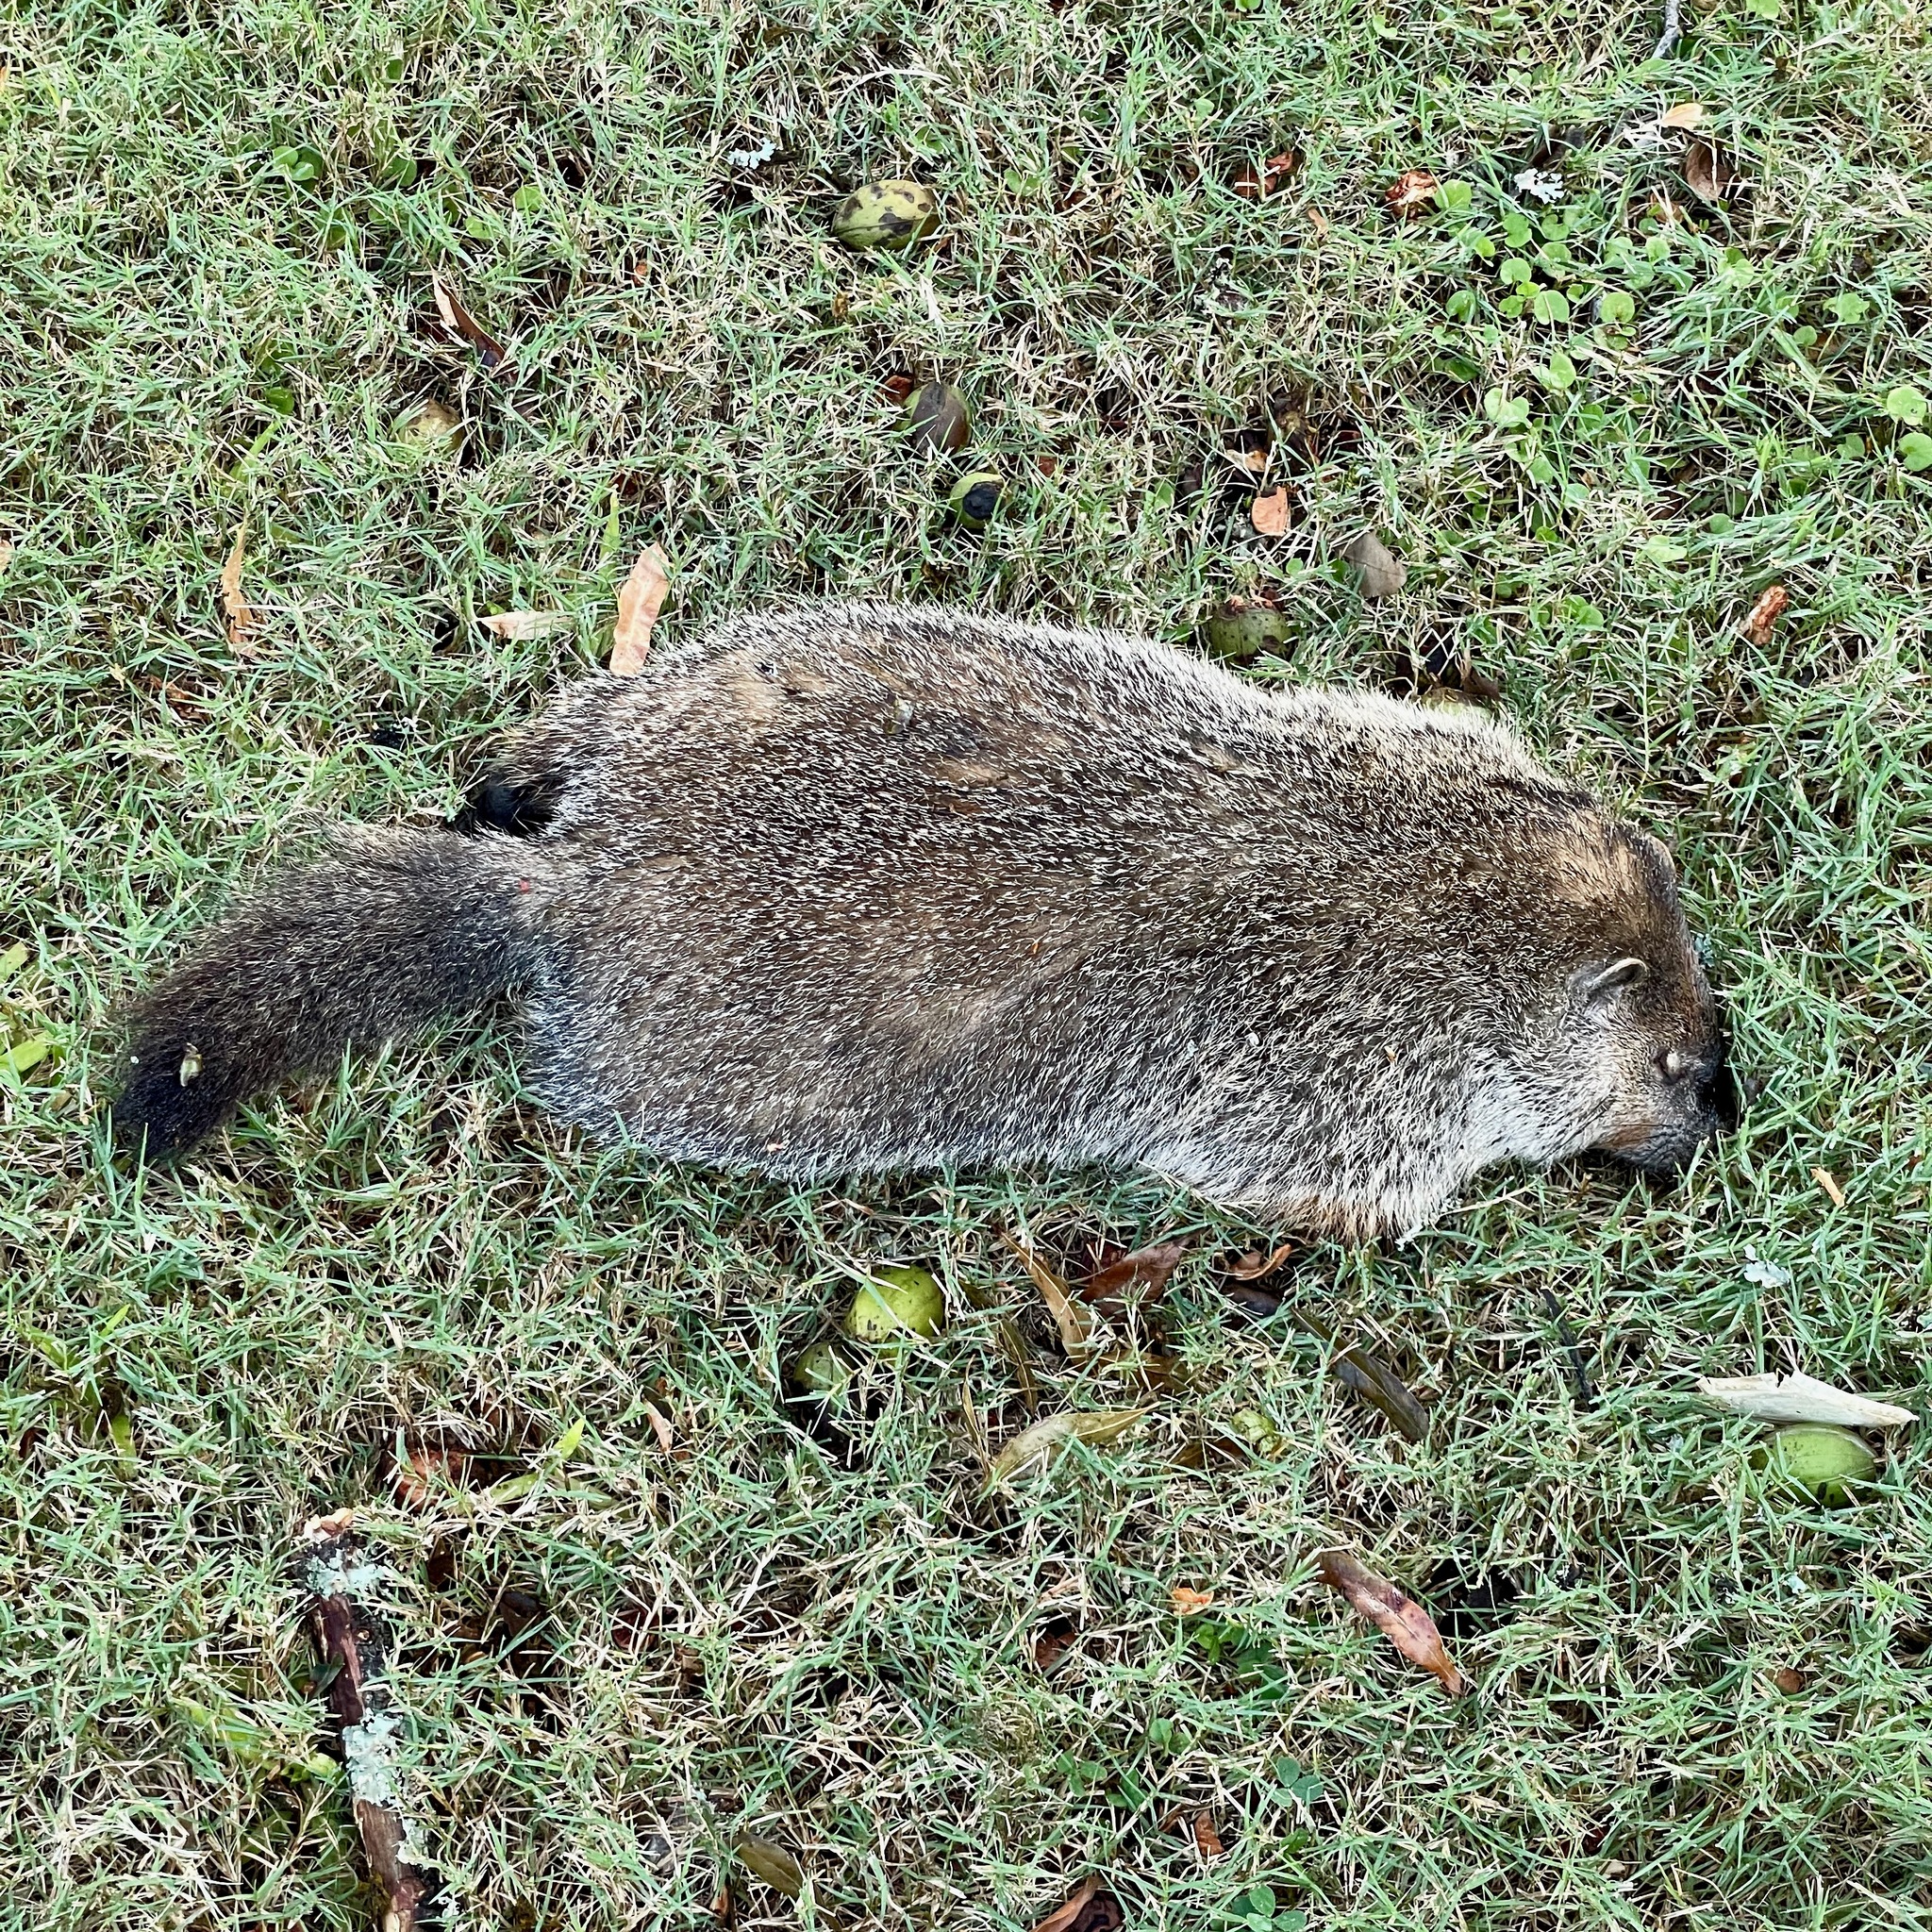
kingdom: Animalia
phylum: Chordata
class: Mammalia
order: Rodentia
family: Sciuridae
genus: Marmota
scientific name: Marmota monax
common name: Groundhog
